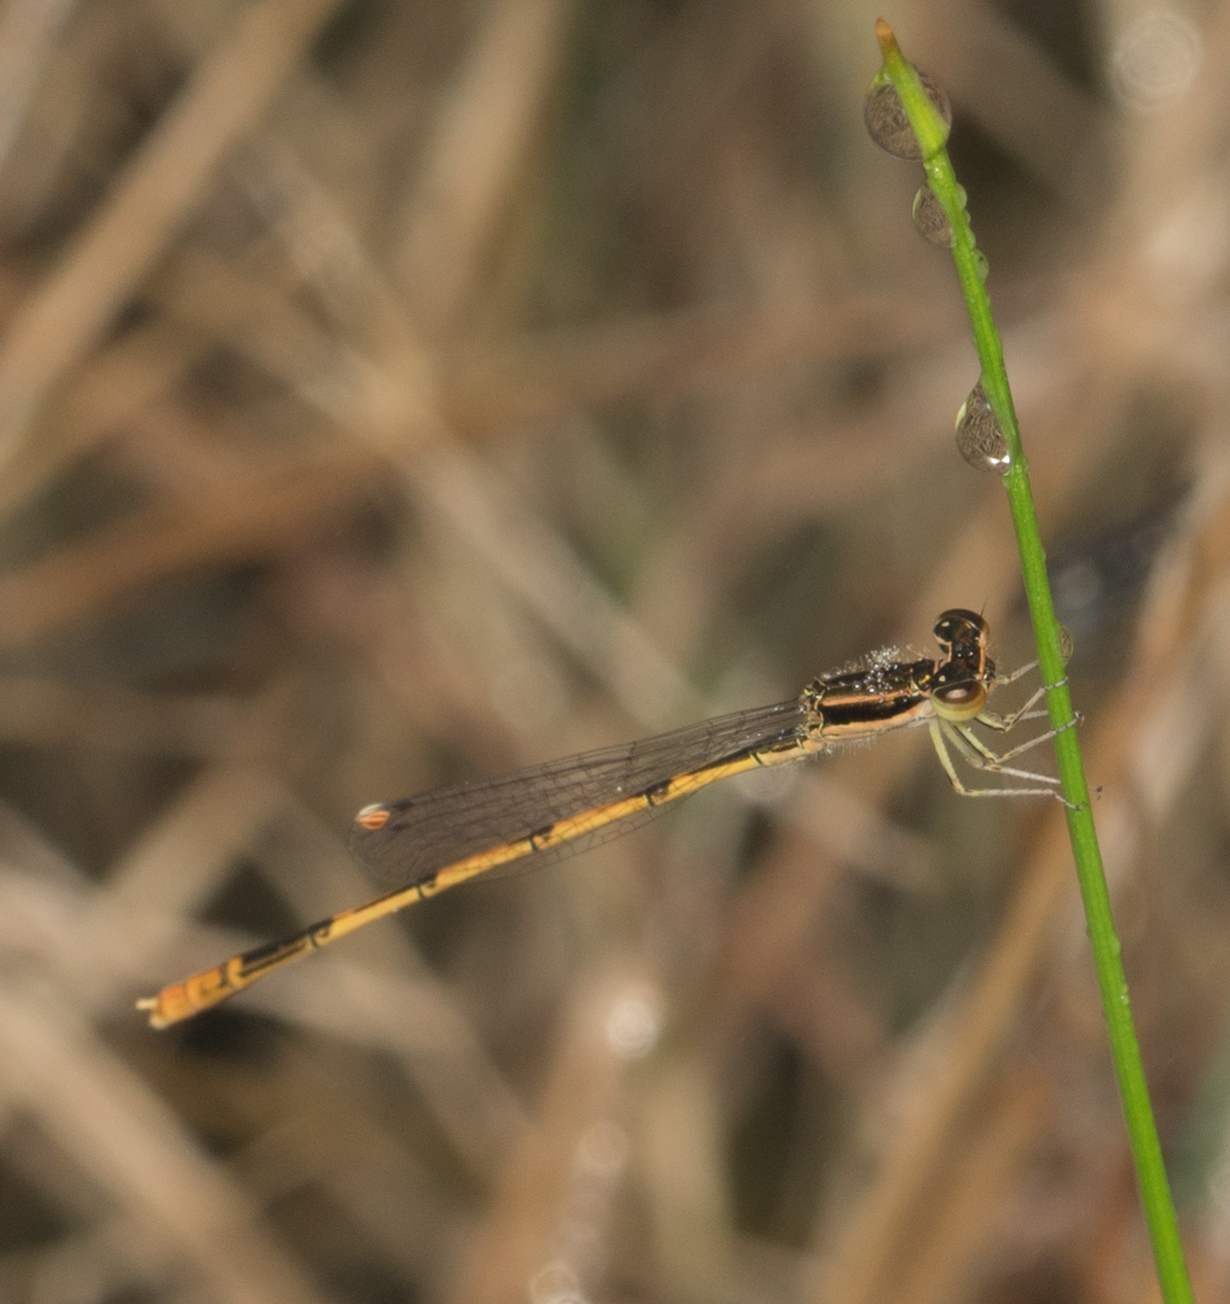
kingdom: Animalia
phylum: Arthropoda
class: Insecta
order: Odonata
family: Coenagrionidae
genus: Ischnura
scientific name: Ischnura hastata
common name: Citrine forktail
